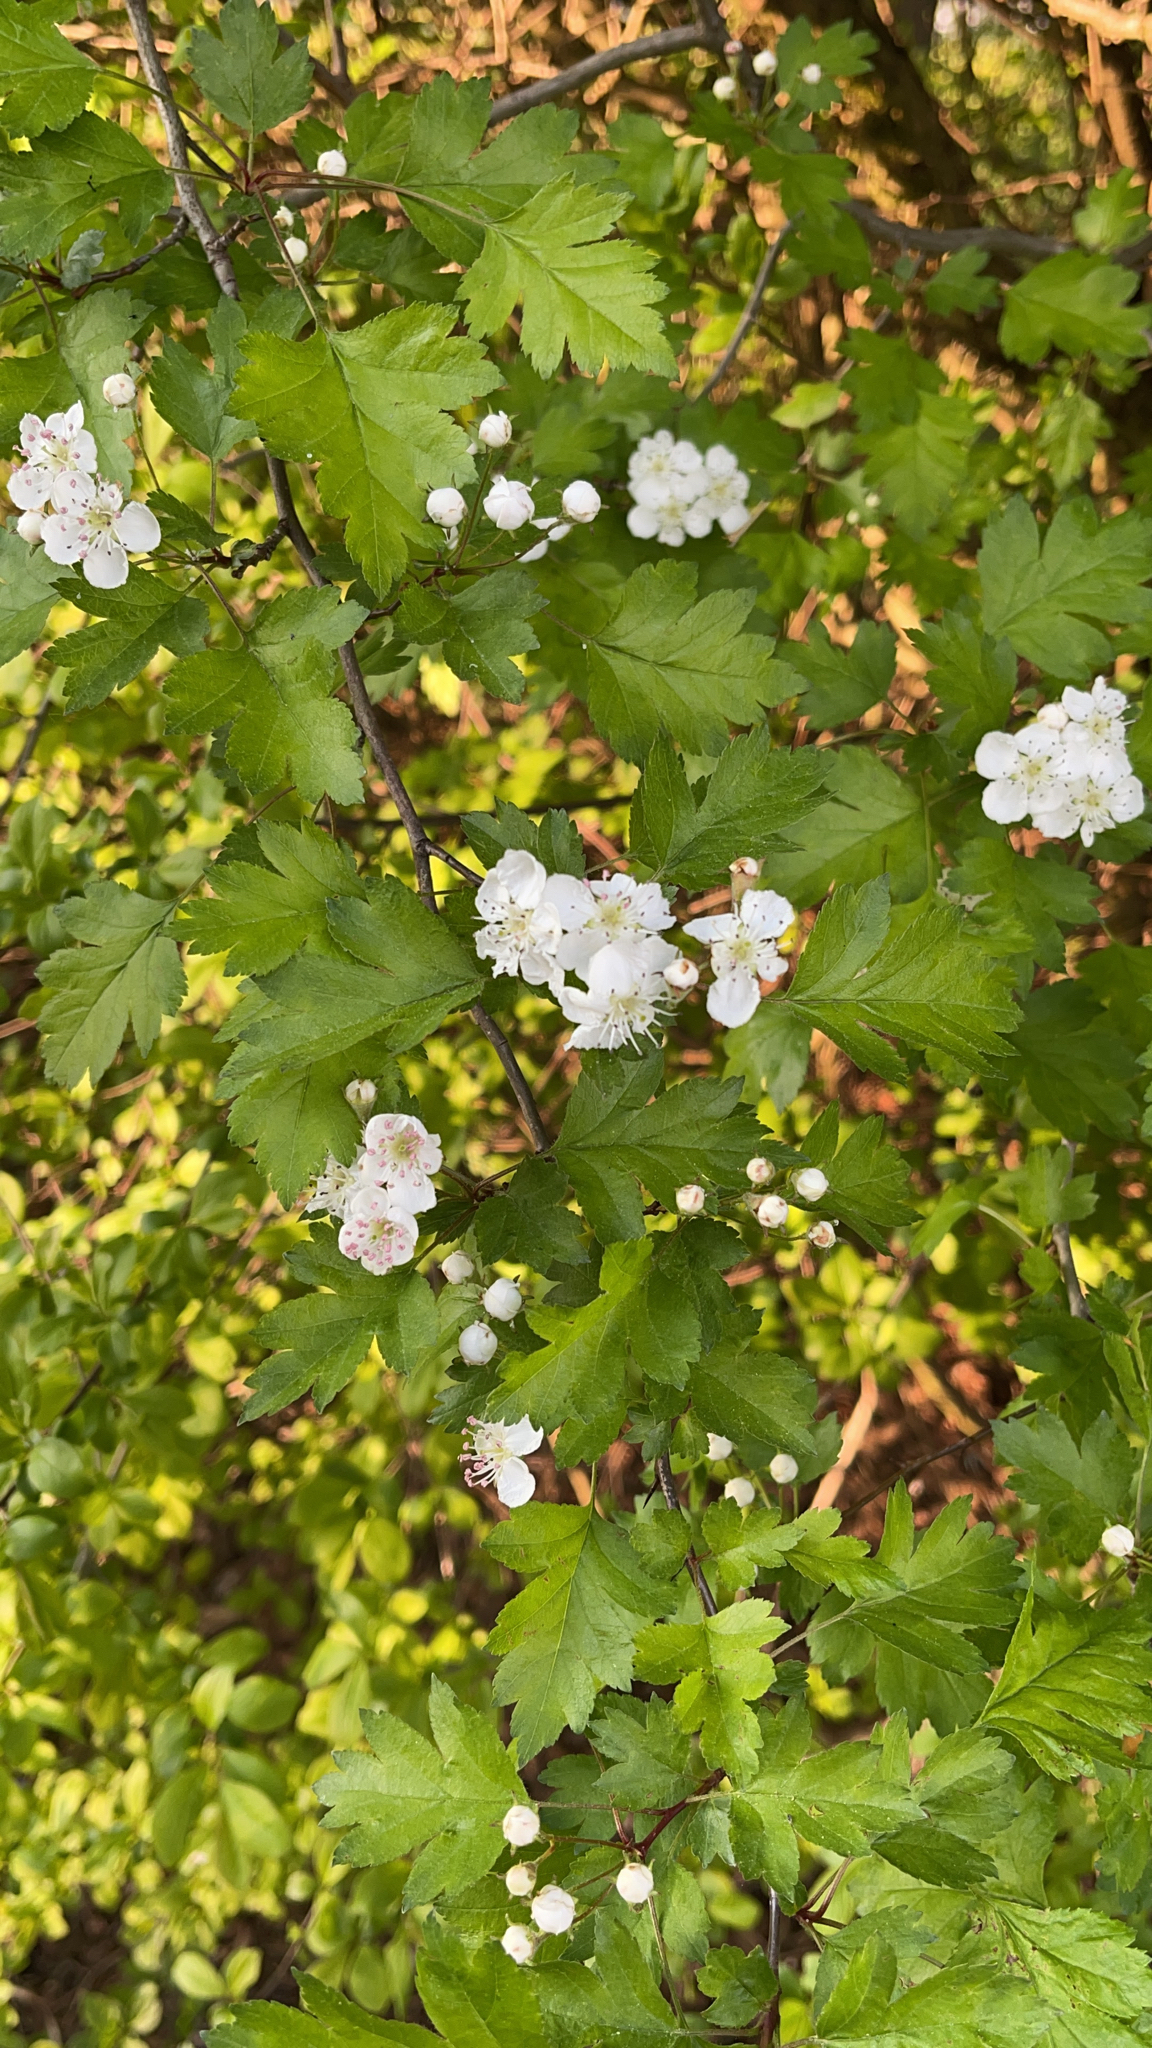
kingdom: Plantae
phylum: Tracheophyta
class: Magnoliopsida
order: Rosales
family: Rosaceae
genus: Crataegus
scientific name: Crataegus monogyna
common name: Hawthorn
